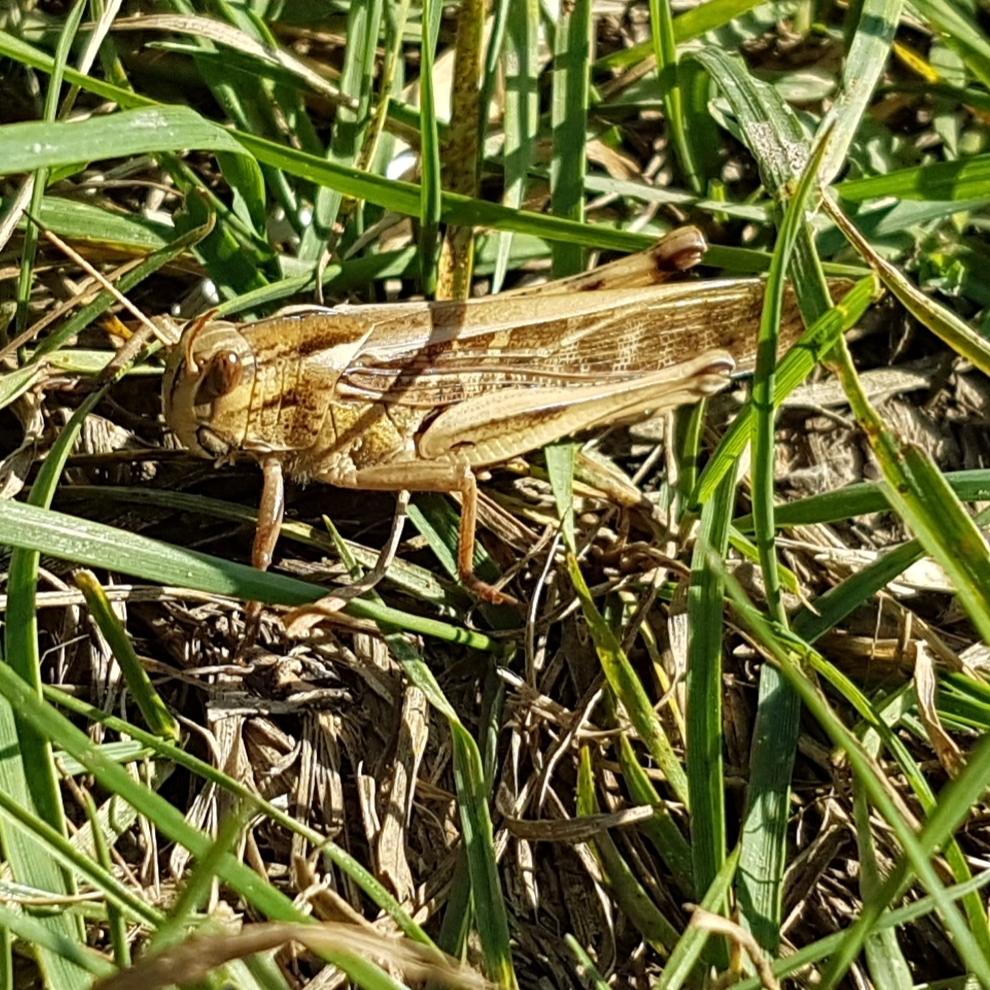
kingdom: Animalia
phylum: Arthropoda
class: Insecta
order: Orthoptera
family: Acrididae
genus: Locusta
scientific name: Locusta migratoria
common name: Migratory locust
